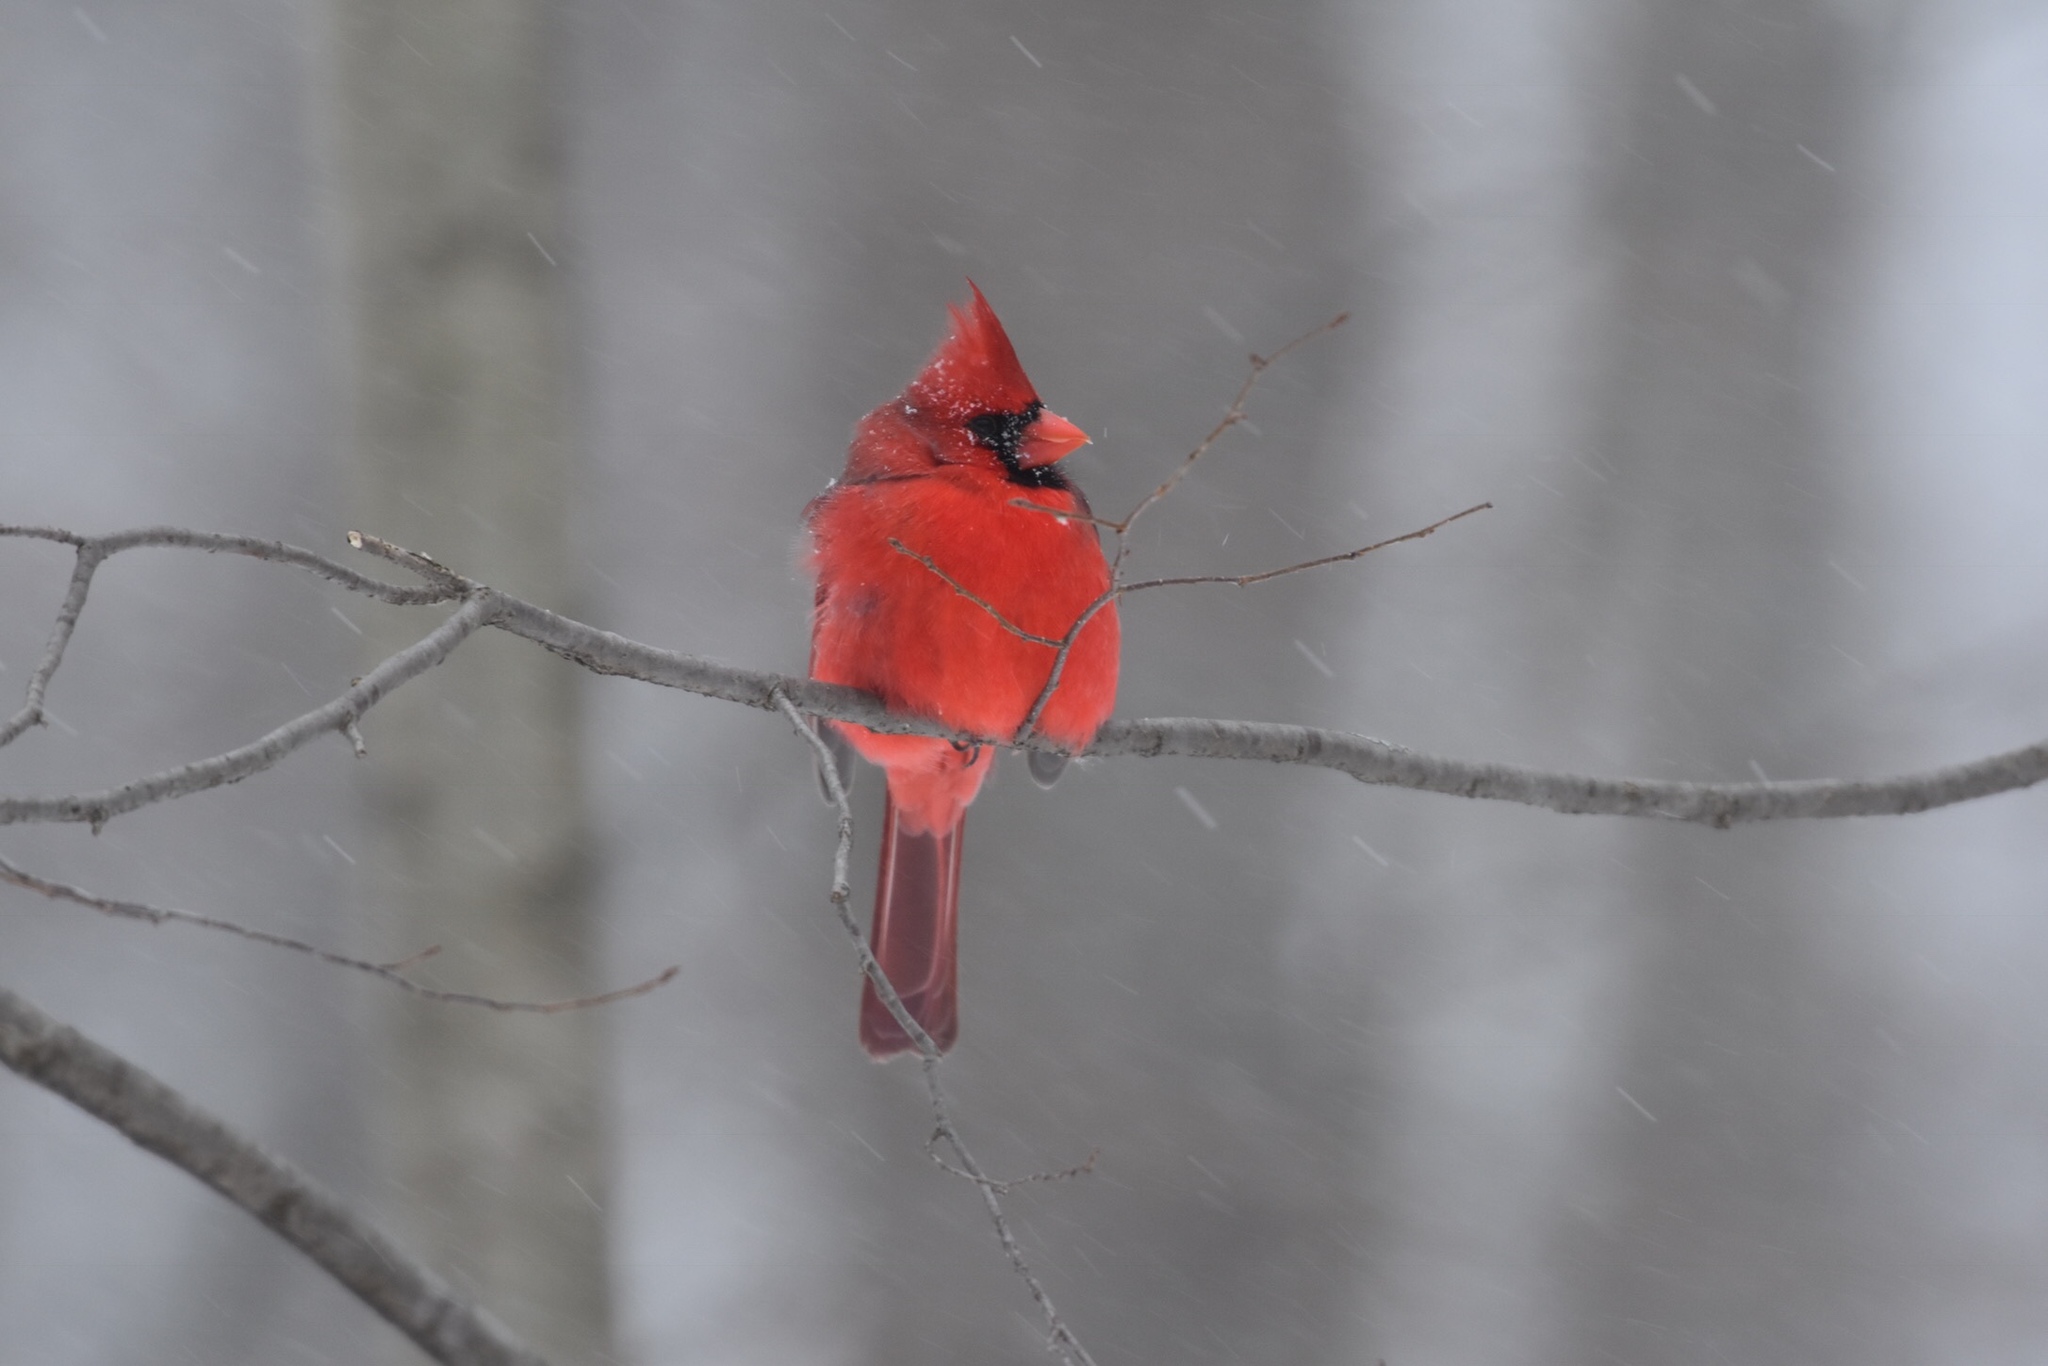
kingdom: Animalia
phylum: Chordata
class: Aves
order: Passeriformes
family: Cardinalidae
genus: Cardinalis
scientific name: Cardinalis cardinalis
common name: Northern cardinal
